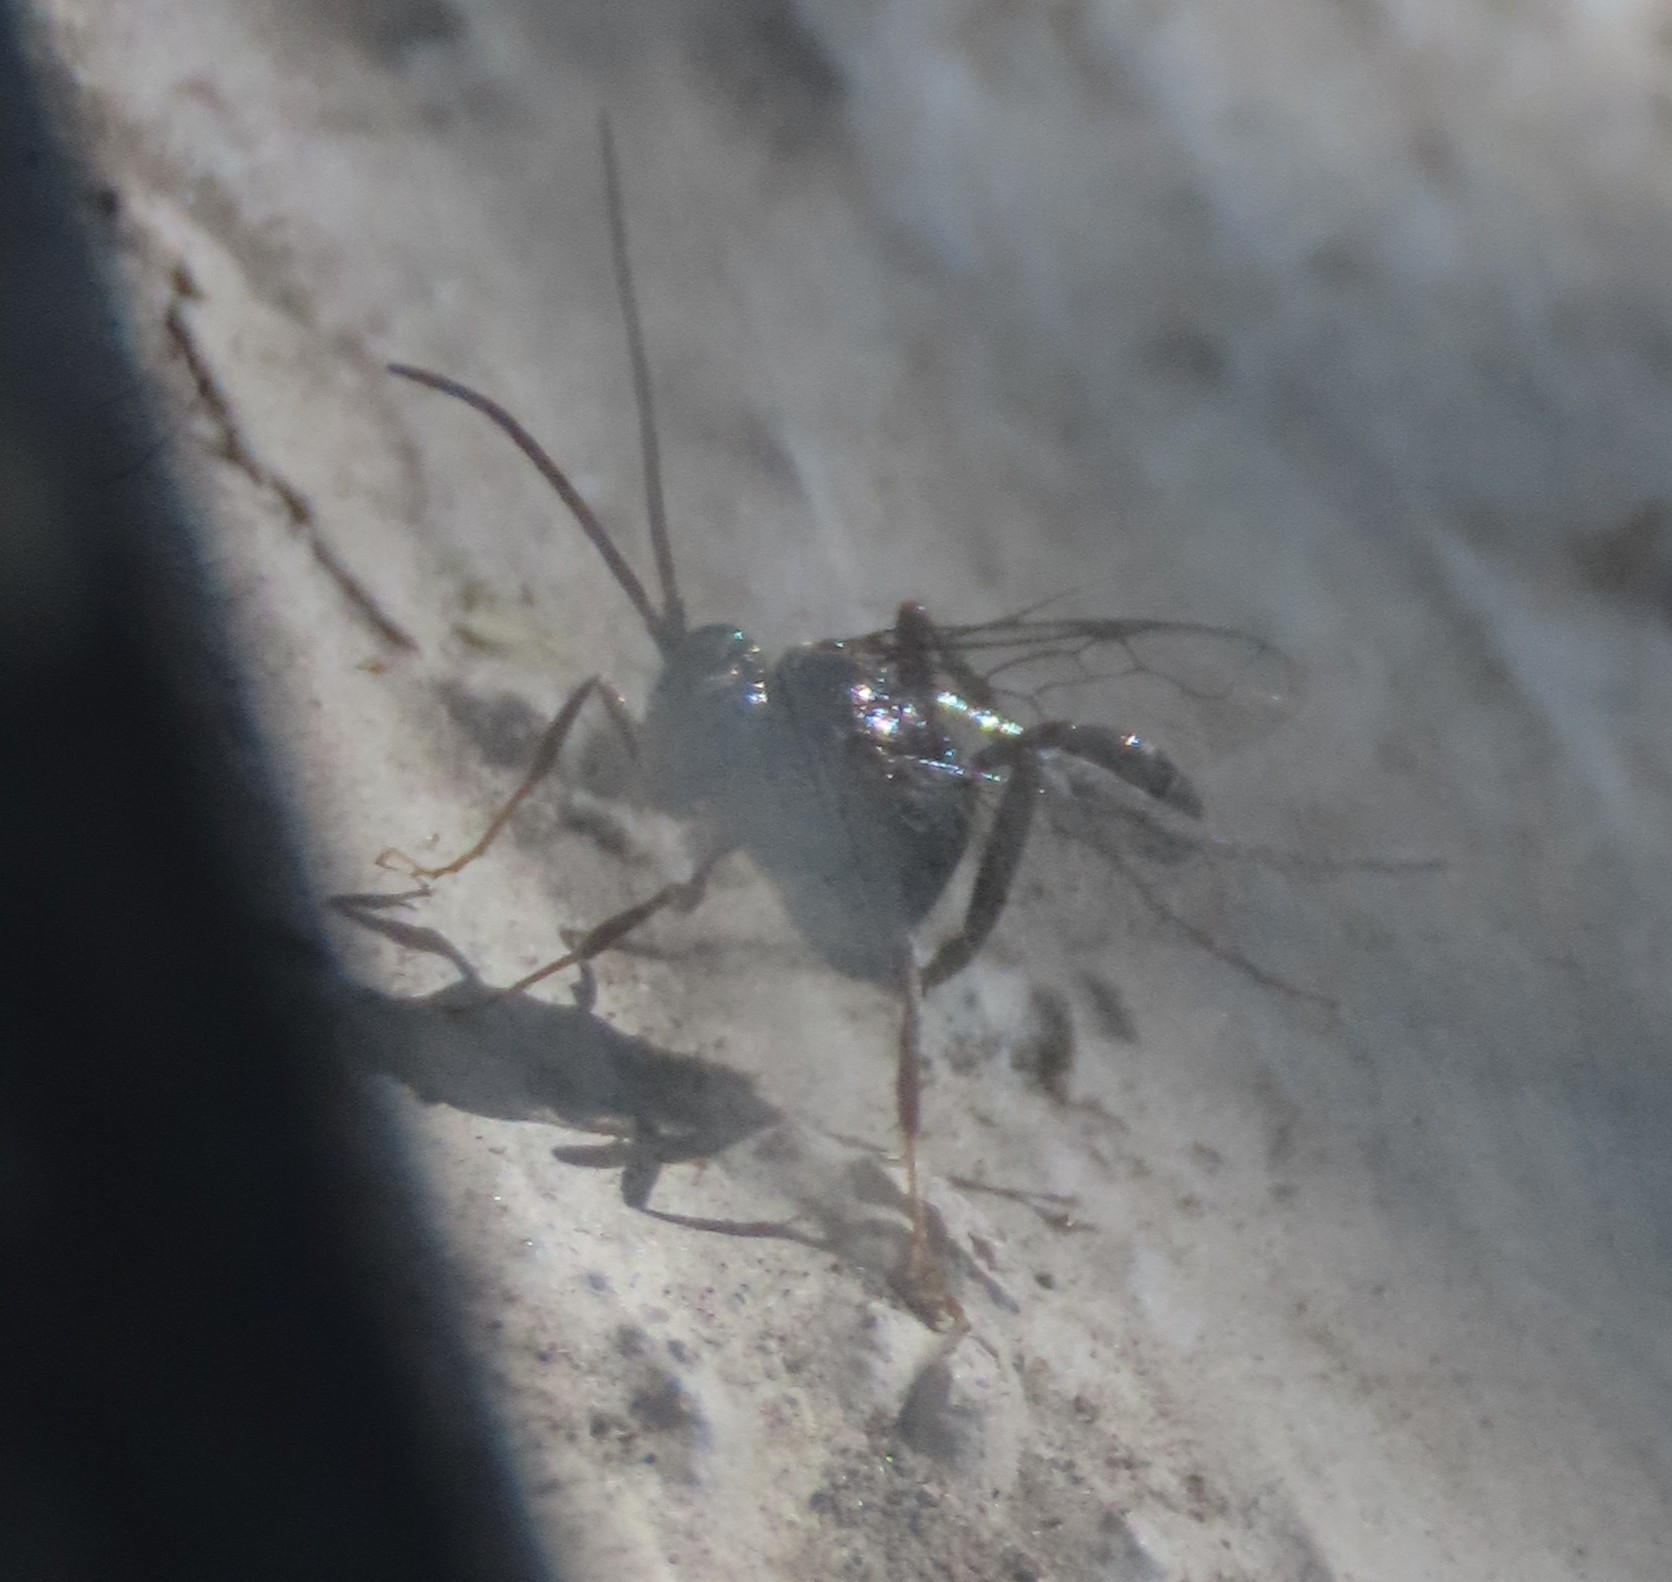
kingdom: Animalia
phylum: Arthropoda
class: Insecta
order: Hymenoptera
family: Evaniidae
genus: Evania
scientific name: Evania appendigaster
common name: Ensign wasp
